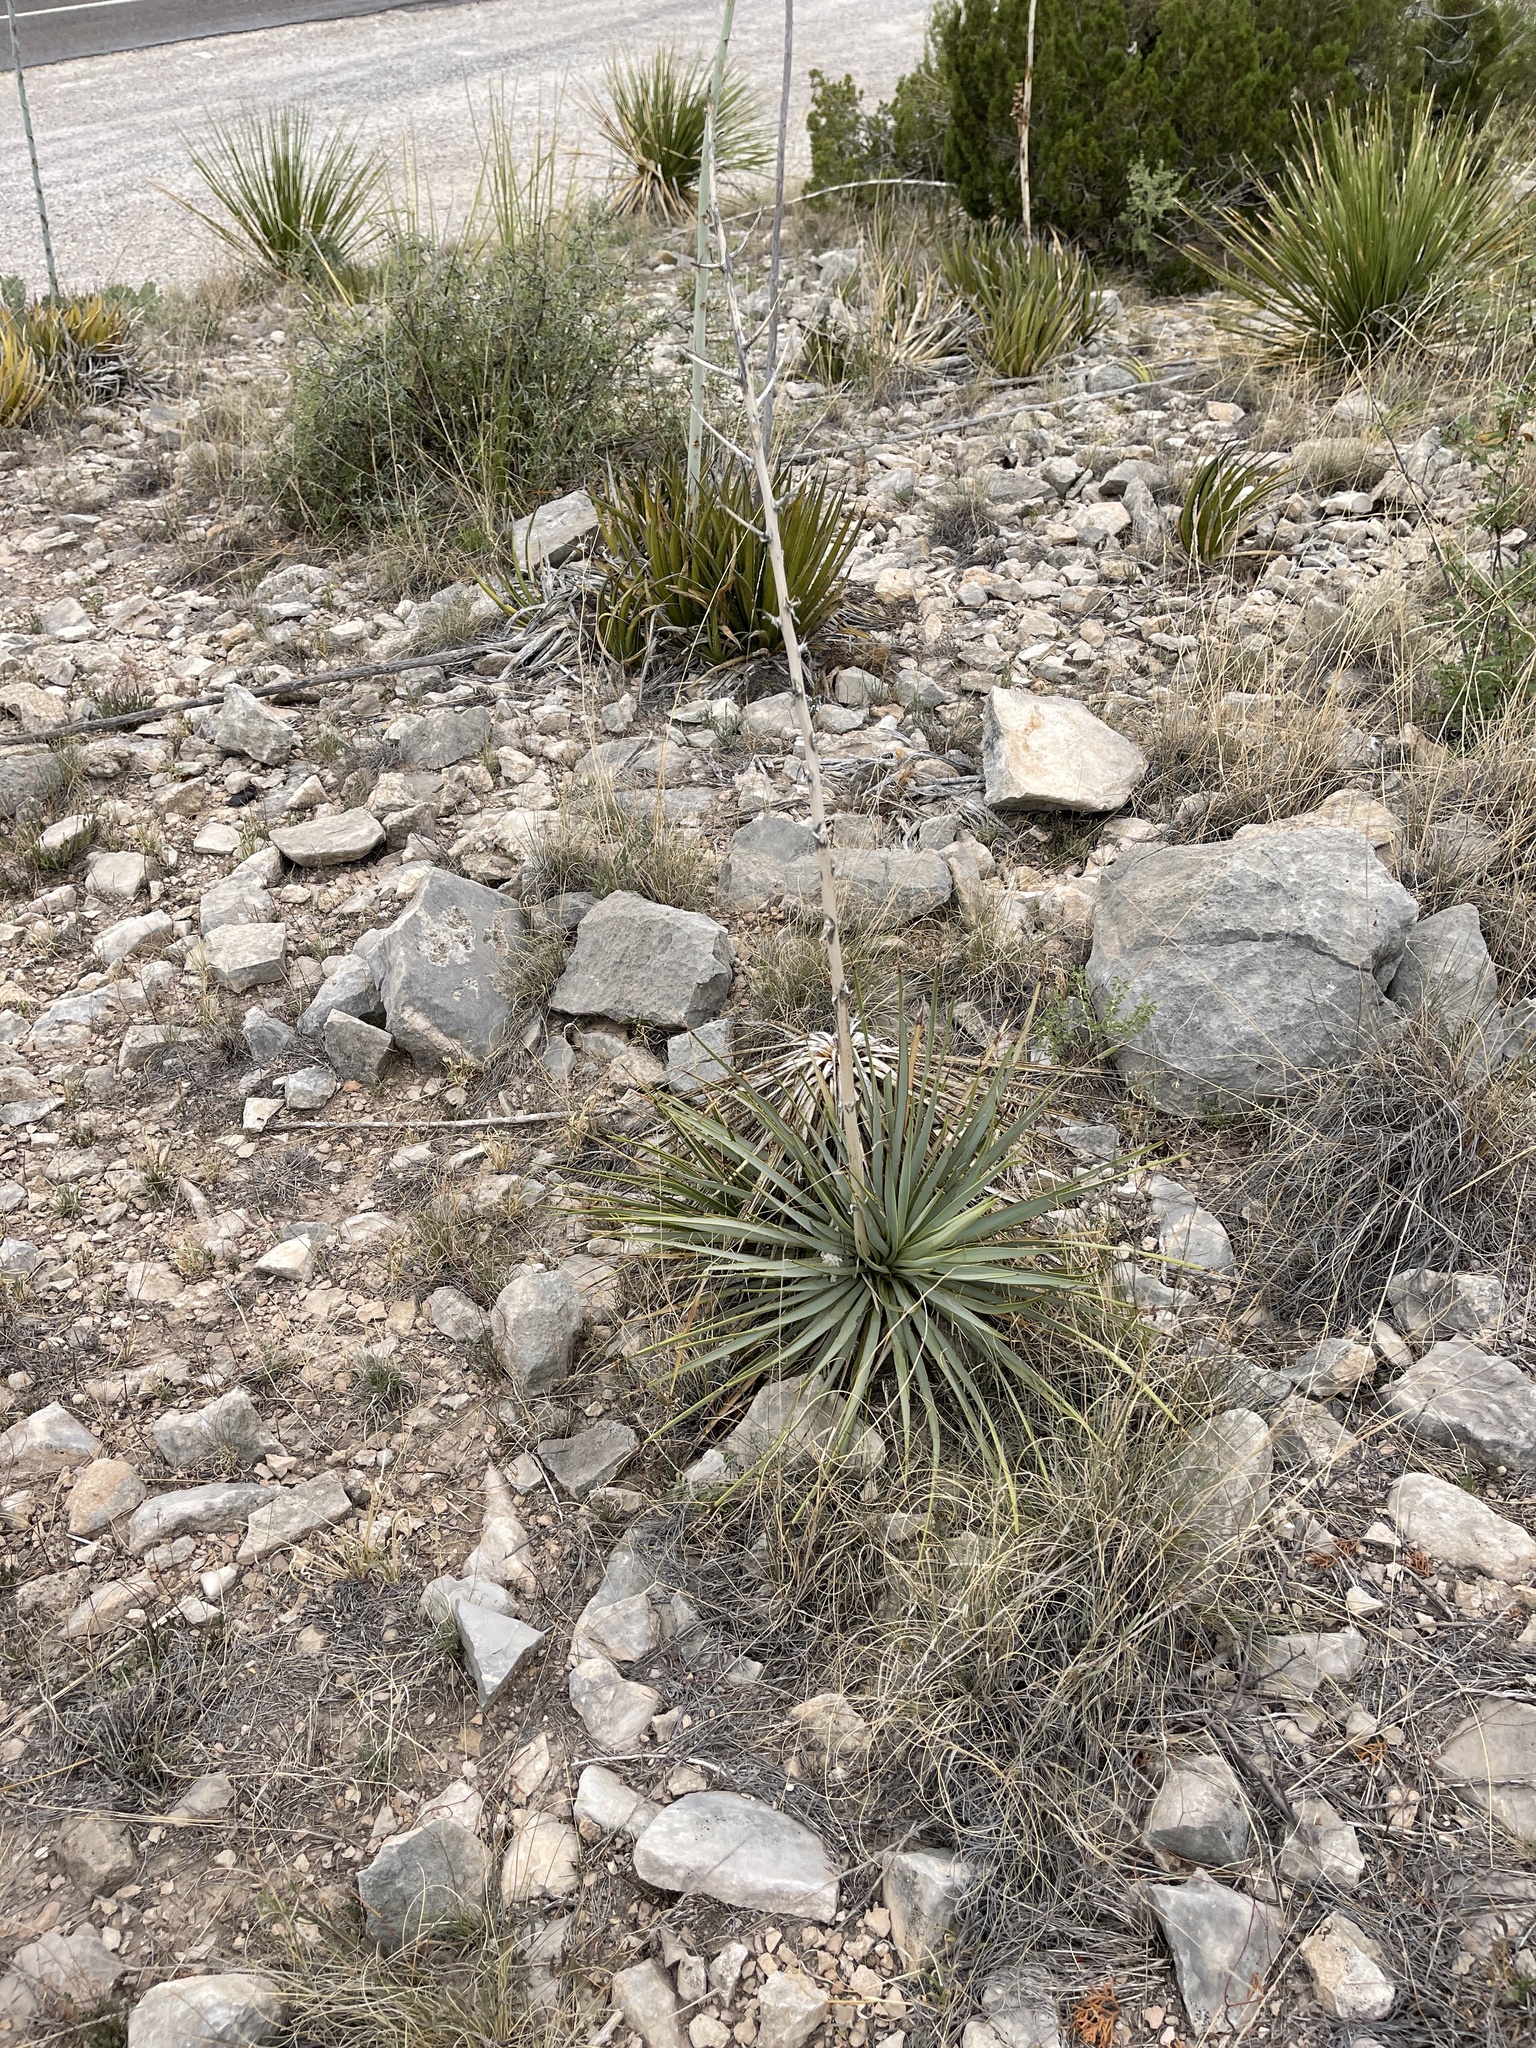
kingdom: Plantae
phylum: Tracheophyta
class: Liliopsida
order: Asparagales
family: Asparagaceae
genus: Yucca
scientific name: Yucca thompsoniana
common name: Trans-pecos yucca
